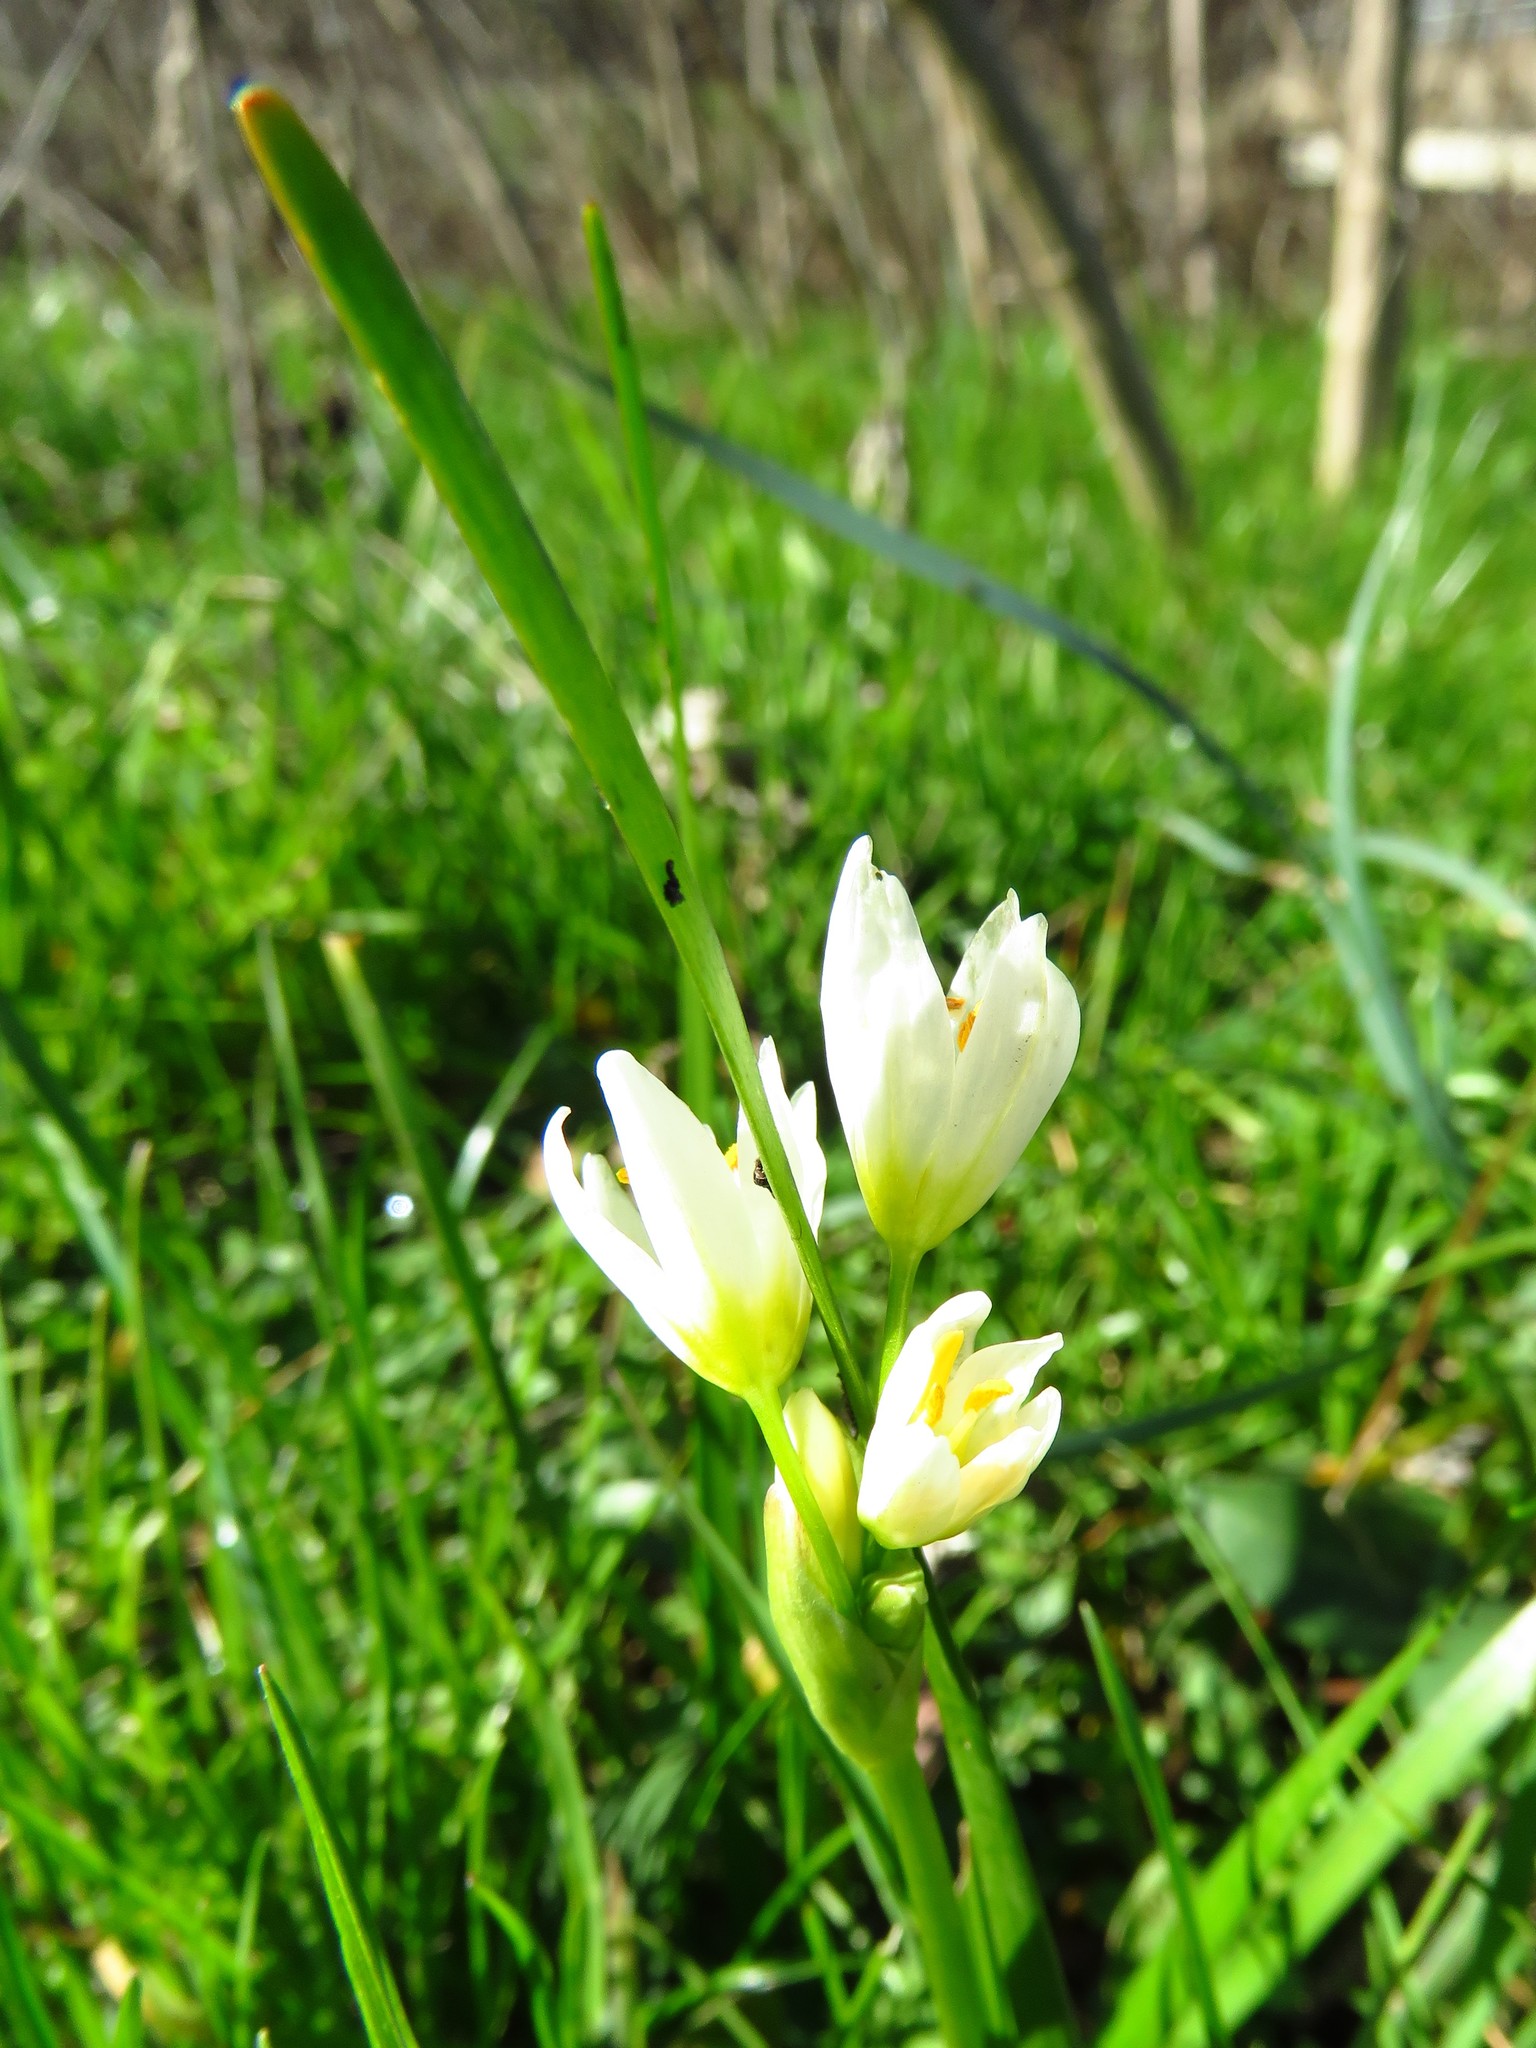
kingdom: Plantae
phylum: Tracheophyta
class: Liliopsida
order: Asparagales
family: Amaryllidaceae
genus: Nothoscordum
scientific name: Nothoscordum bivalve
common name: Crow-poison
